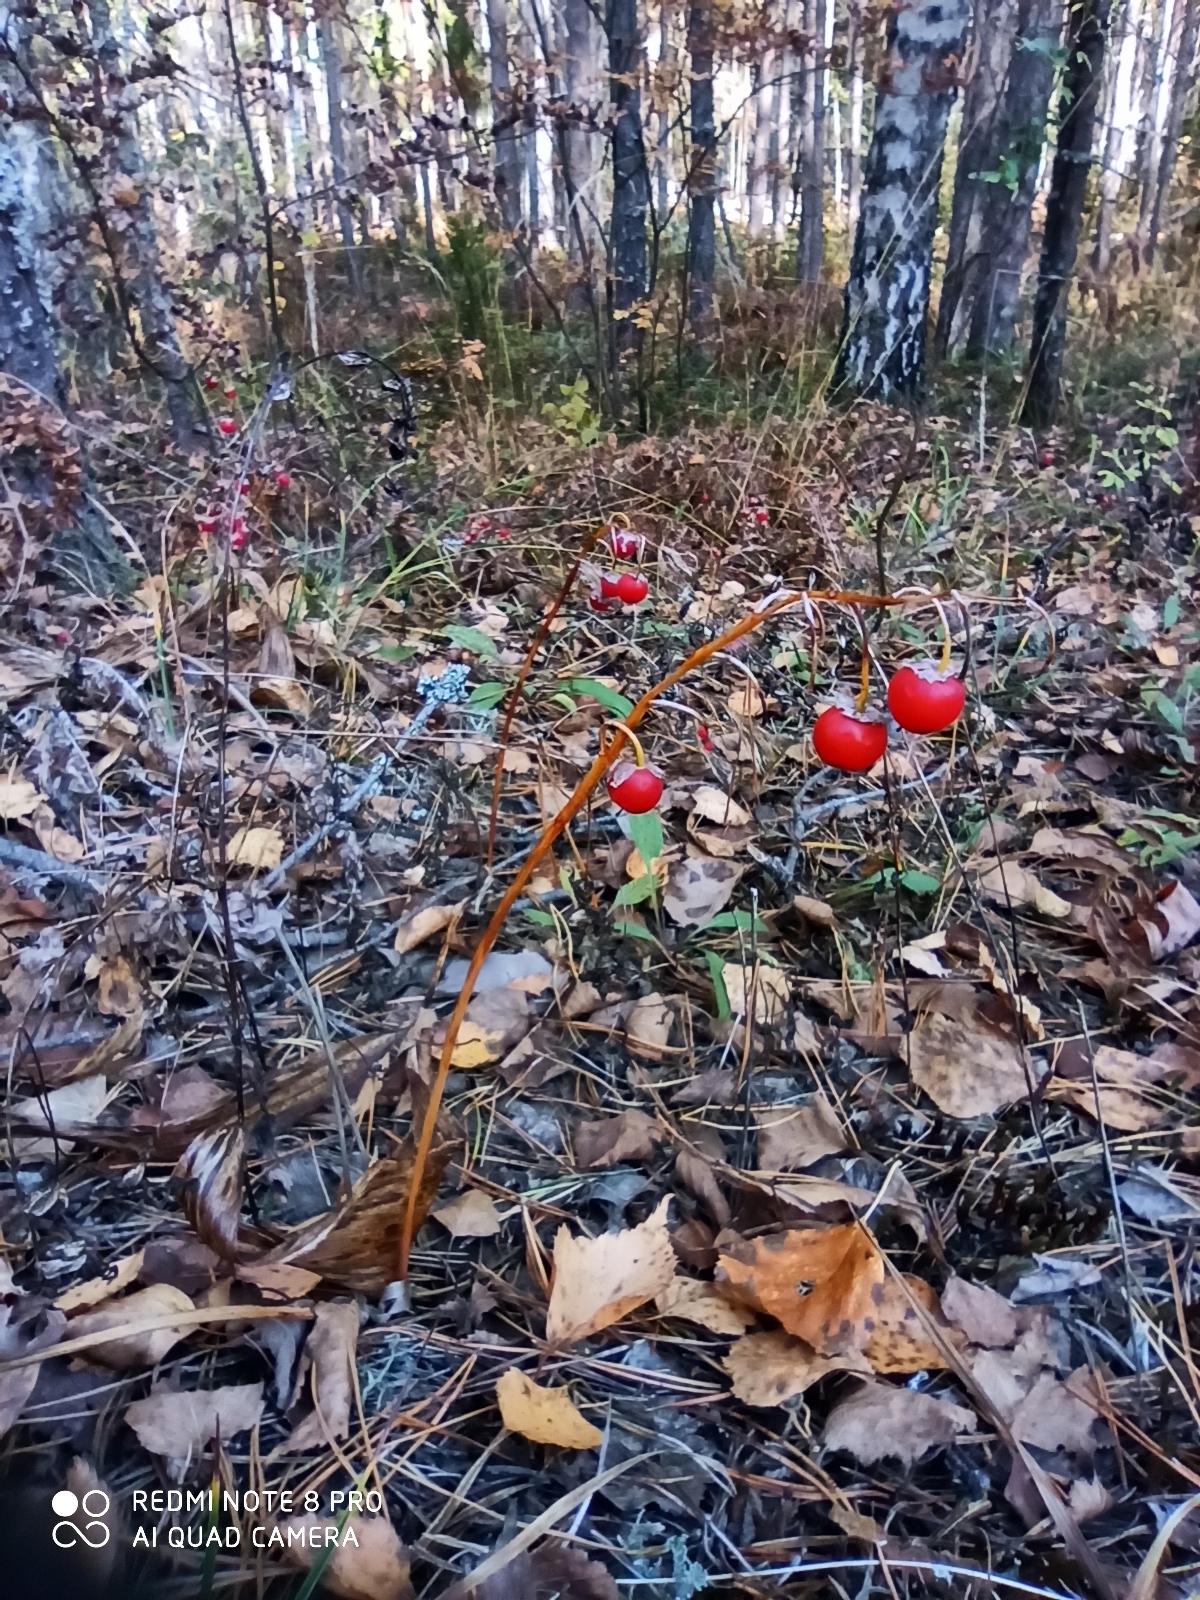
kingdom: Plantae
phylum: Tracheophyta
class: Liliopsida
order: Asparagales
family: Asparagaceae
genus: Convallaria
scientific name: Convallaria majalis
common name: Lily-of-the-valley
